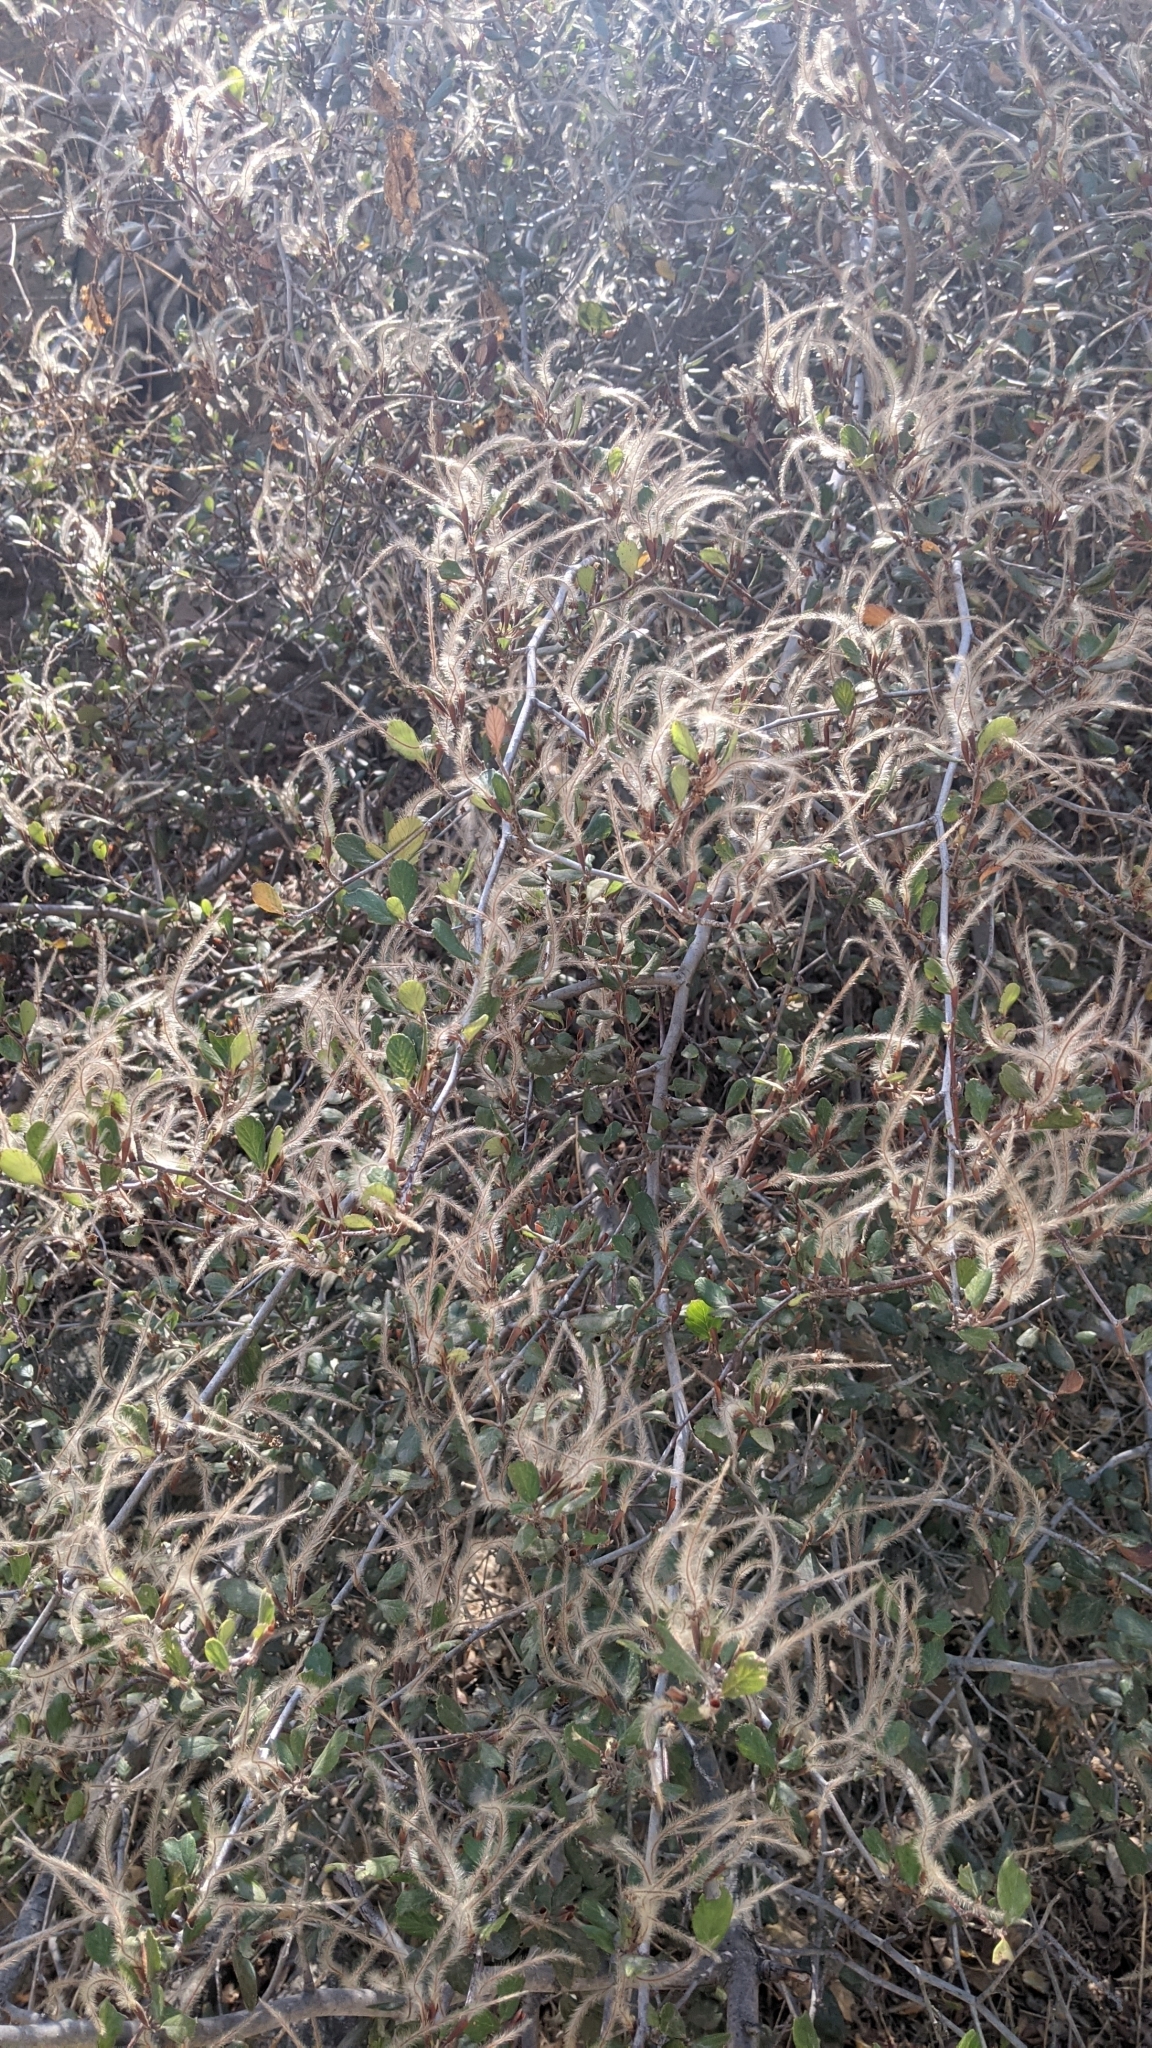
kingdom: Plantae
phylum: Tracheophyta
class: Magnoliopsida
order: Rosales
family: Rosaceae
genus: Cercocarpus
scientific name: Cercocarpus betuloides
